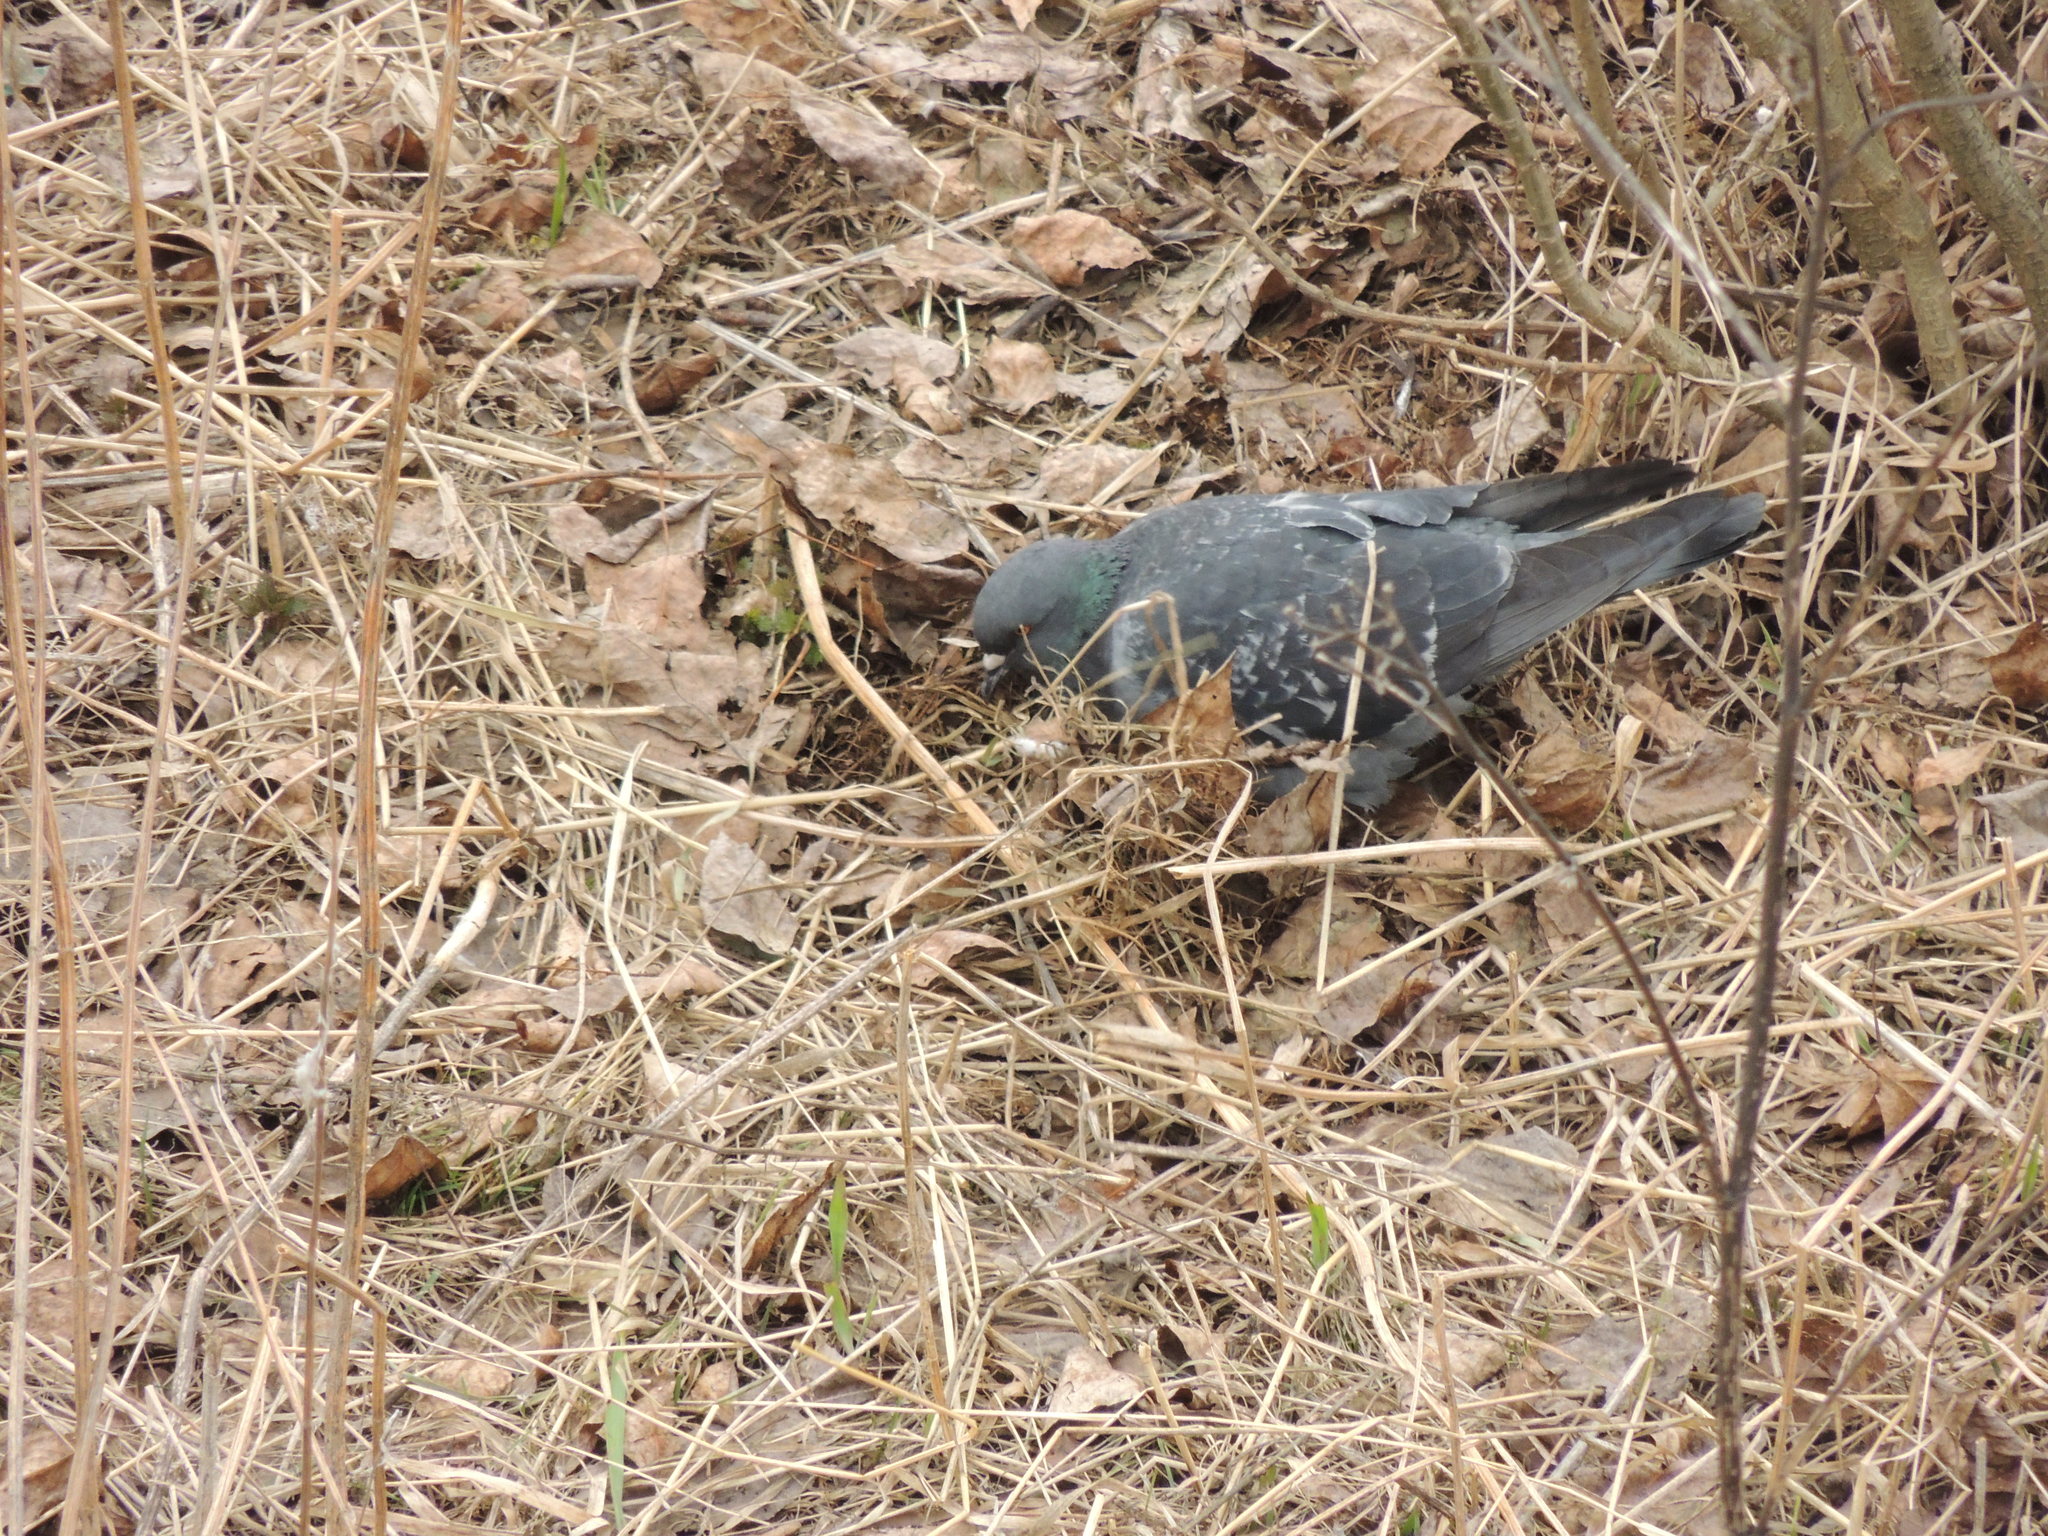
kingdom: Animalia
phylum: Chordata
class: Aves
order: Columbiformes
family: Columbidae
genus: Columba
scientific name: Columba livia
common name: Rock pigeon
